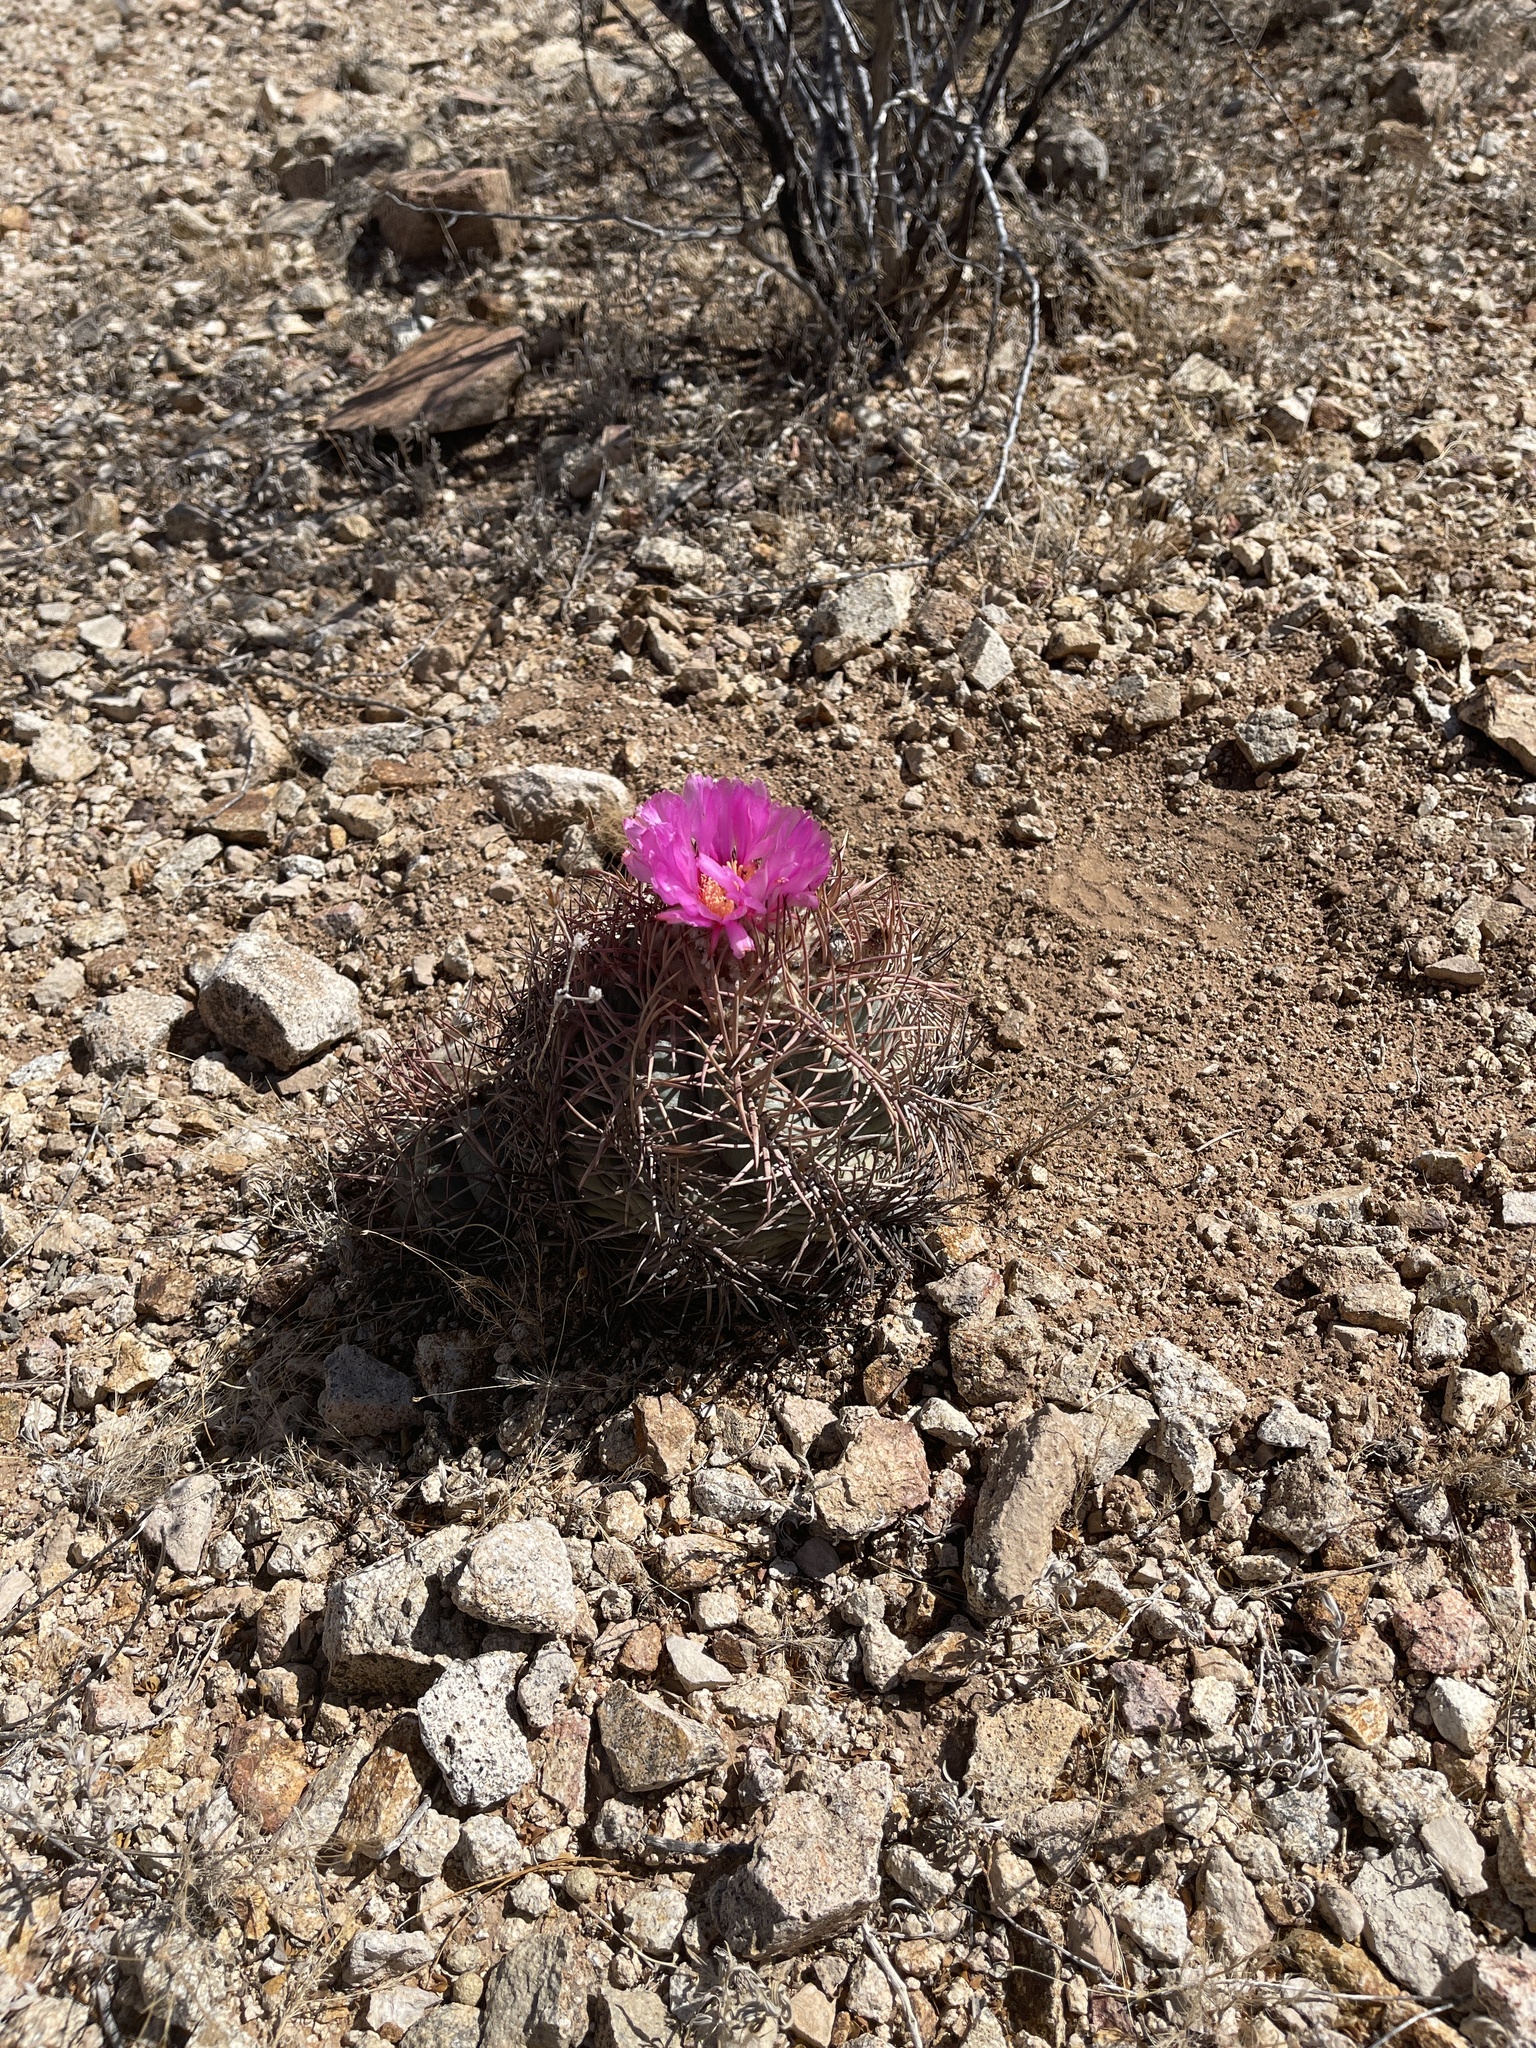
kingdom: Plantae
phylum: Tracheophyta
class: Magnoliopsida
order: Caryophyllales
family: Cactaceae
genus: Echinocactus
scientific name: Echinocactus horizonthalonius
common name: Devilshead
